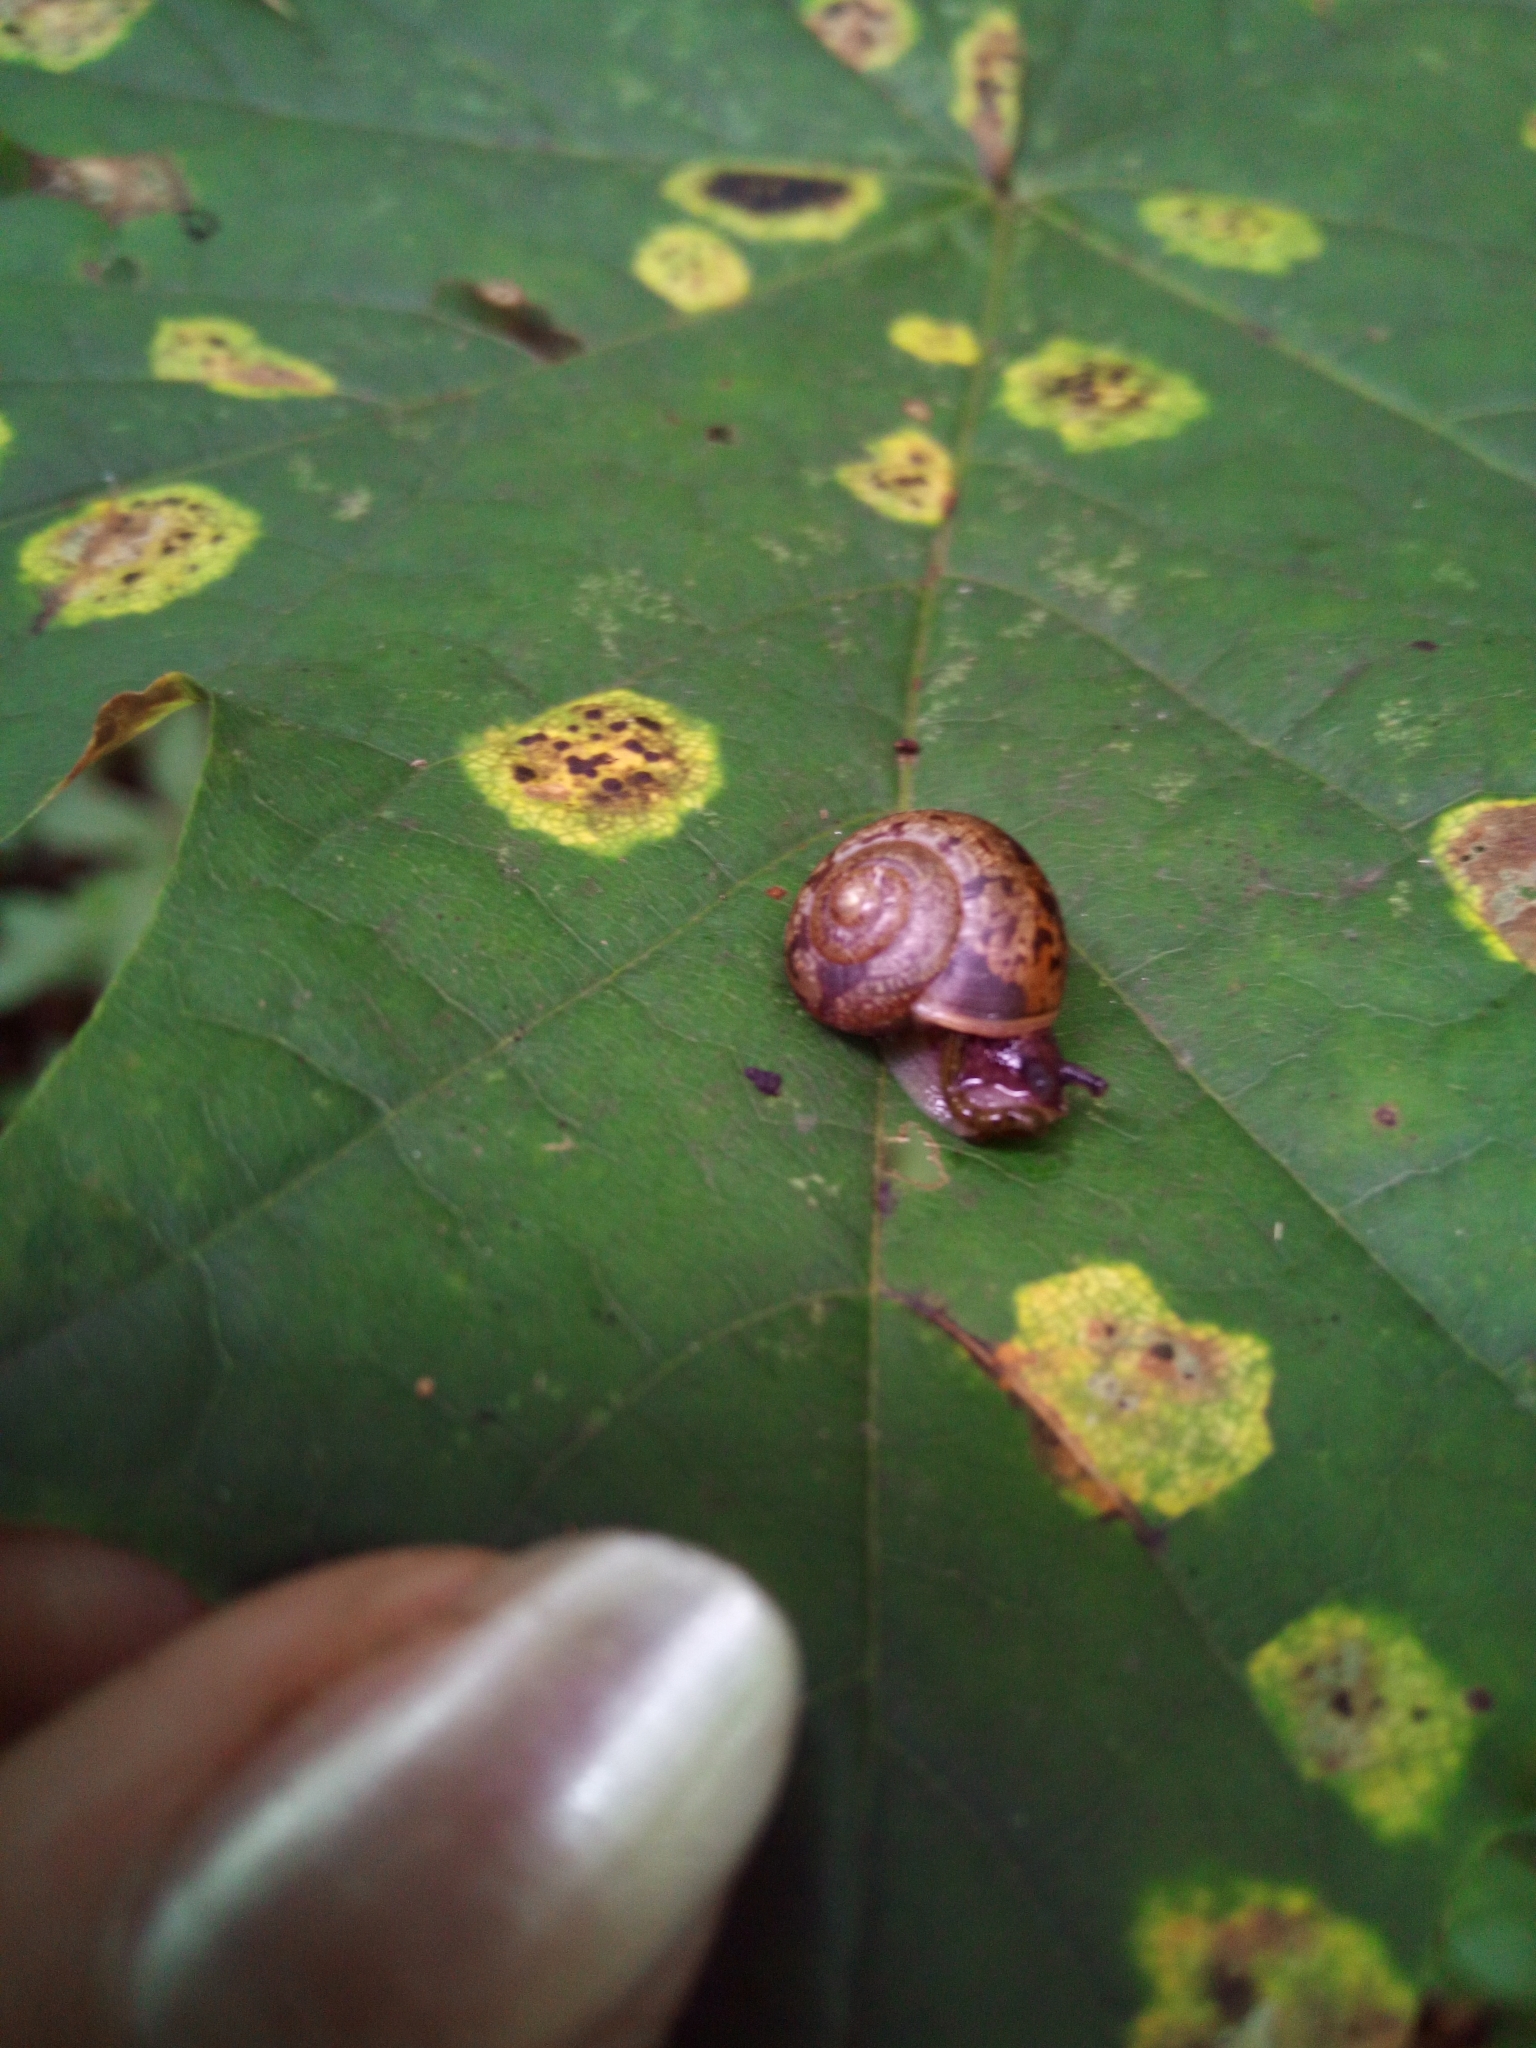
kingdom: Animalia
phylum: Mollusca
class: Gastropoda
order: Stylommatophora
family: Camaenidae
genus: Fruticicola
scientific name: Fruticicola fruticum
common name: Bush snail
